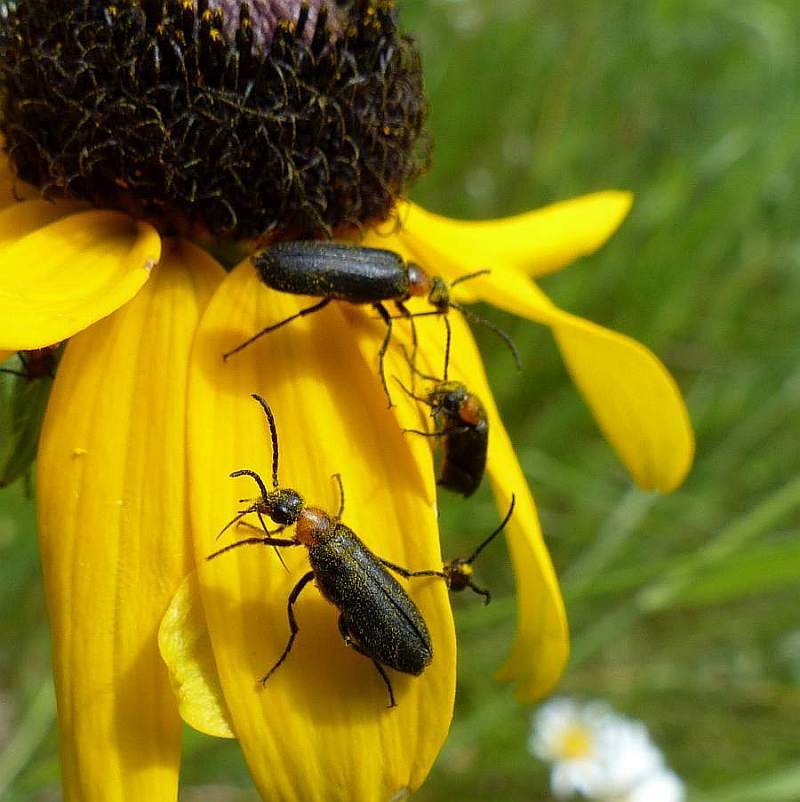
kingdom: Animalia
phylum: Arthropoda
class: Insecta
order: Coleoptera
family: Meloidae
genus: Nemognatha
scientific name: Nemognatha nemorensis
